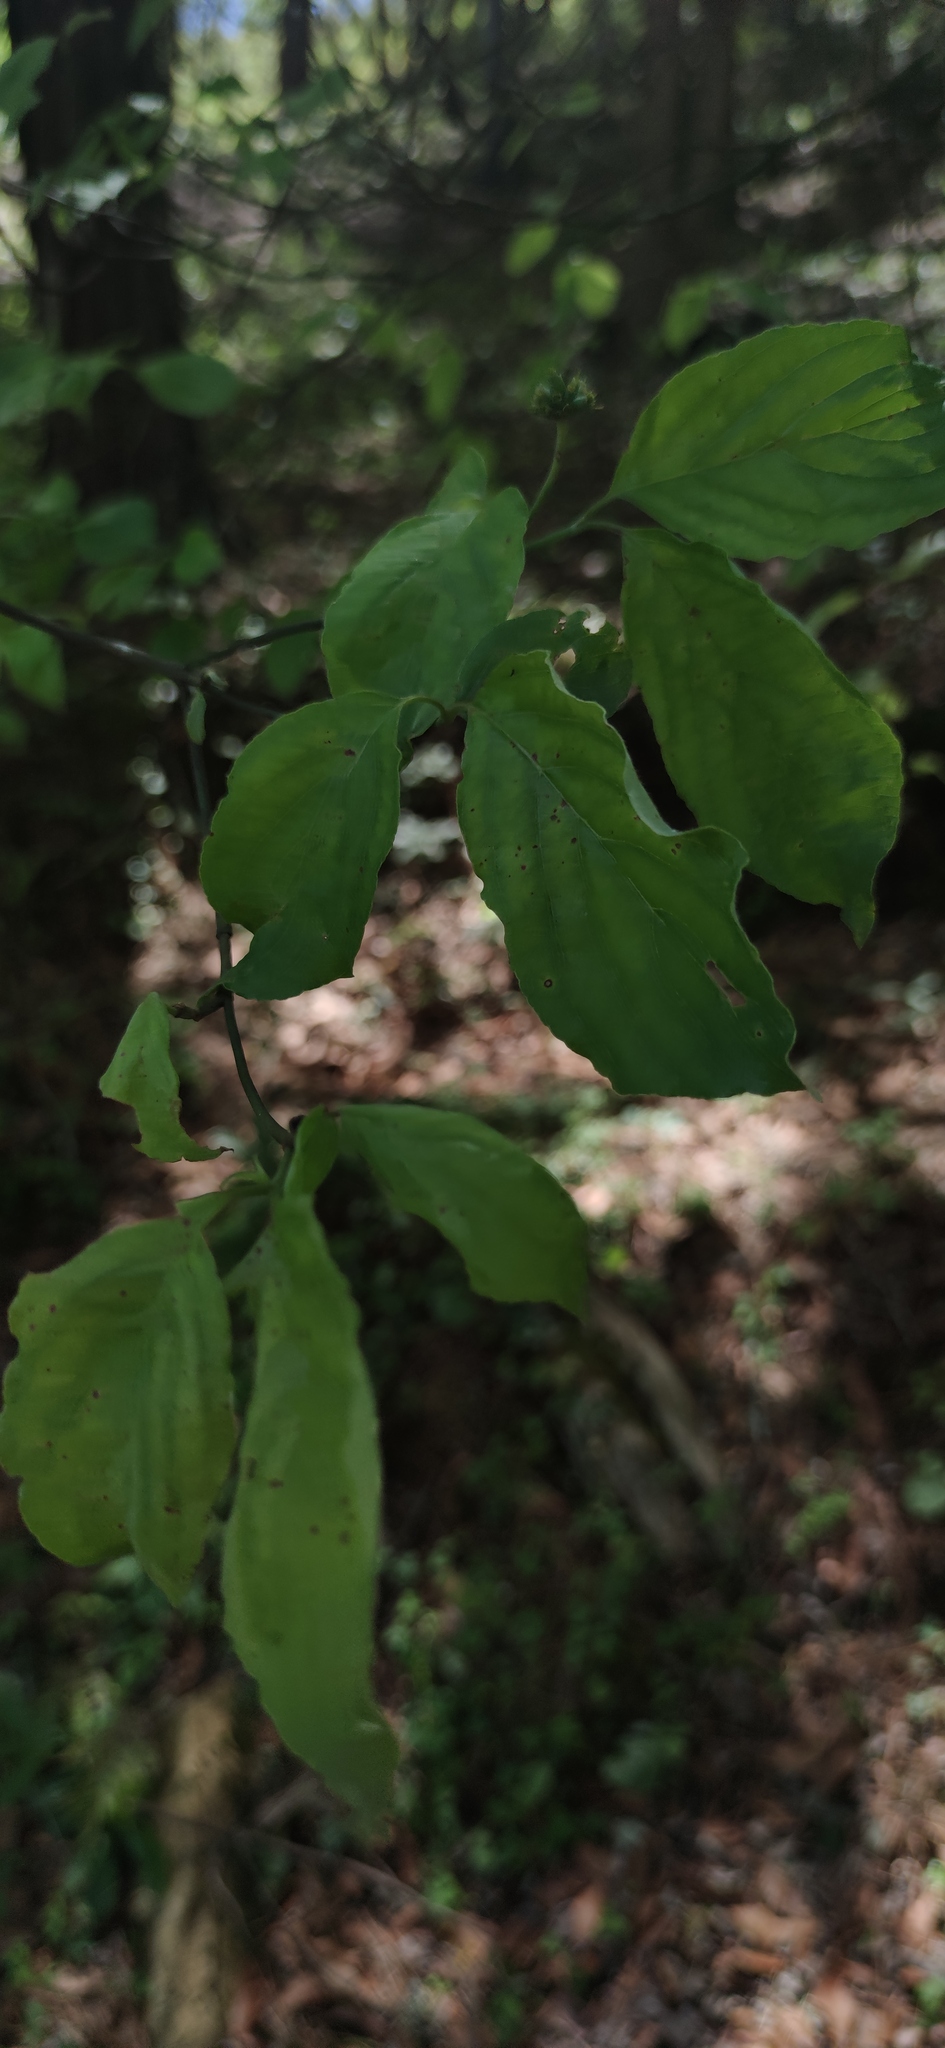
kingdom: Plantae
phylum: Tracheophyta
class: Magnoliopsida
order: Cornales
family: Cornaceae
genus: Cornus
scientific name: Cornus florida
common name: Flowering dogwood
